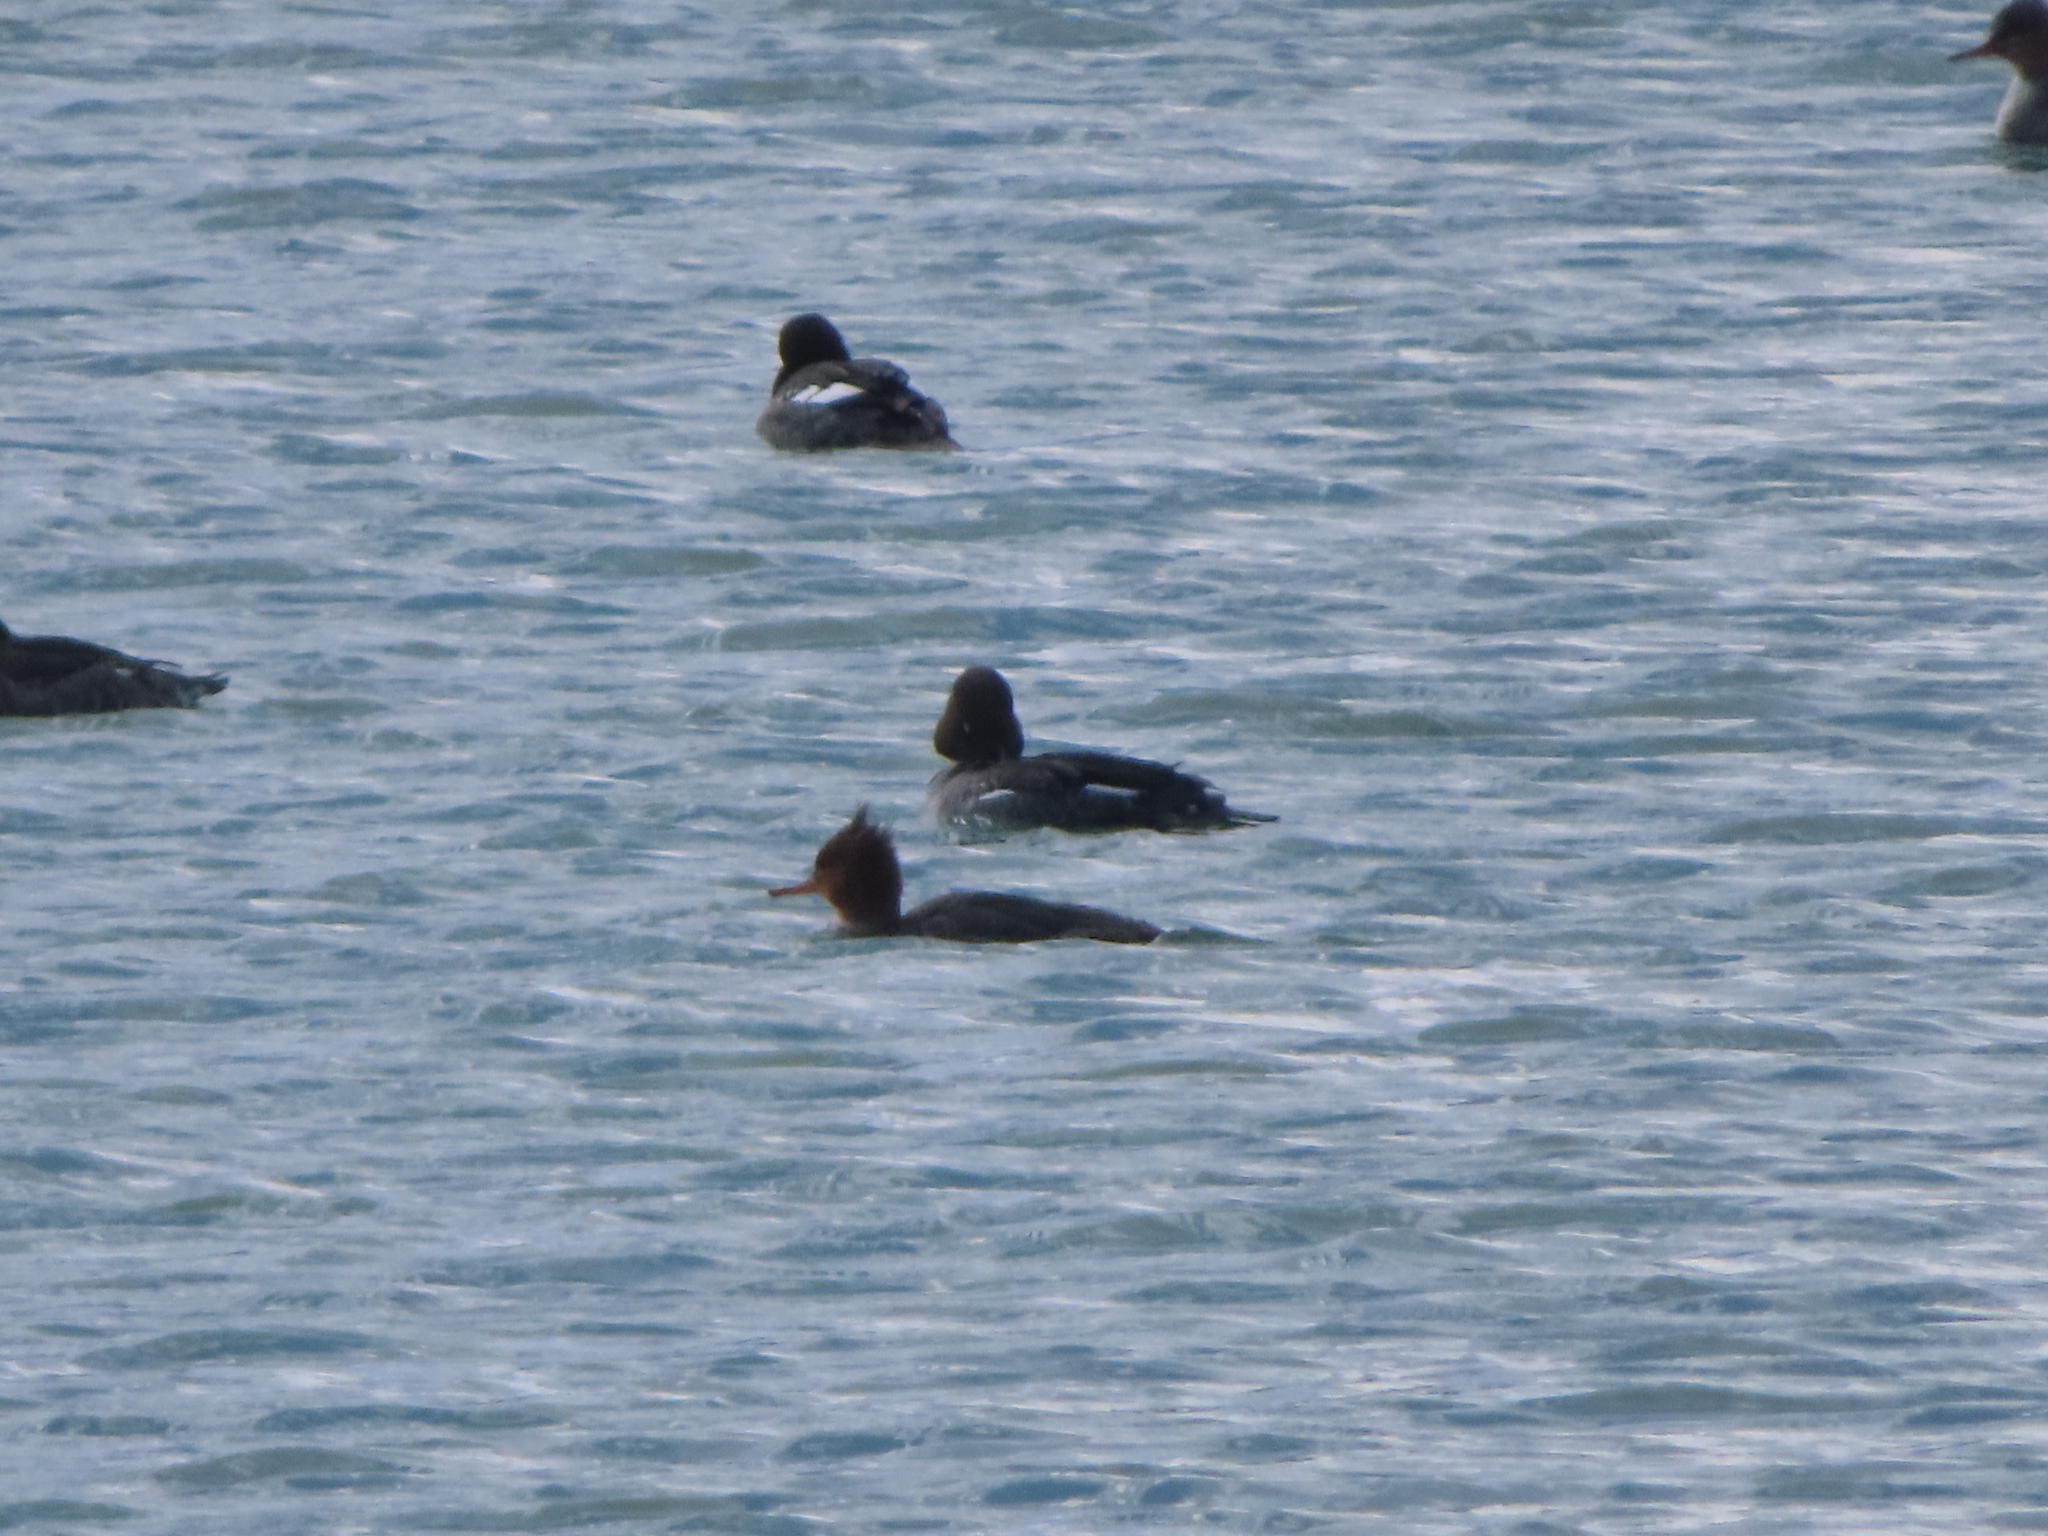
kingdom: Animalia
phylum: Chordata
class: Aves
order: Anseriformes
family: Anatidae
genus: Mergus
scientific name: Mergus serrator
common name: Red-breasted merganser
